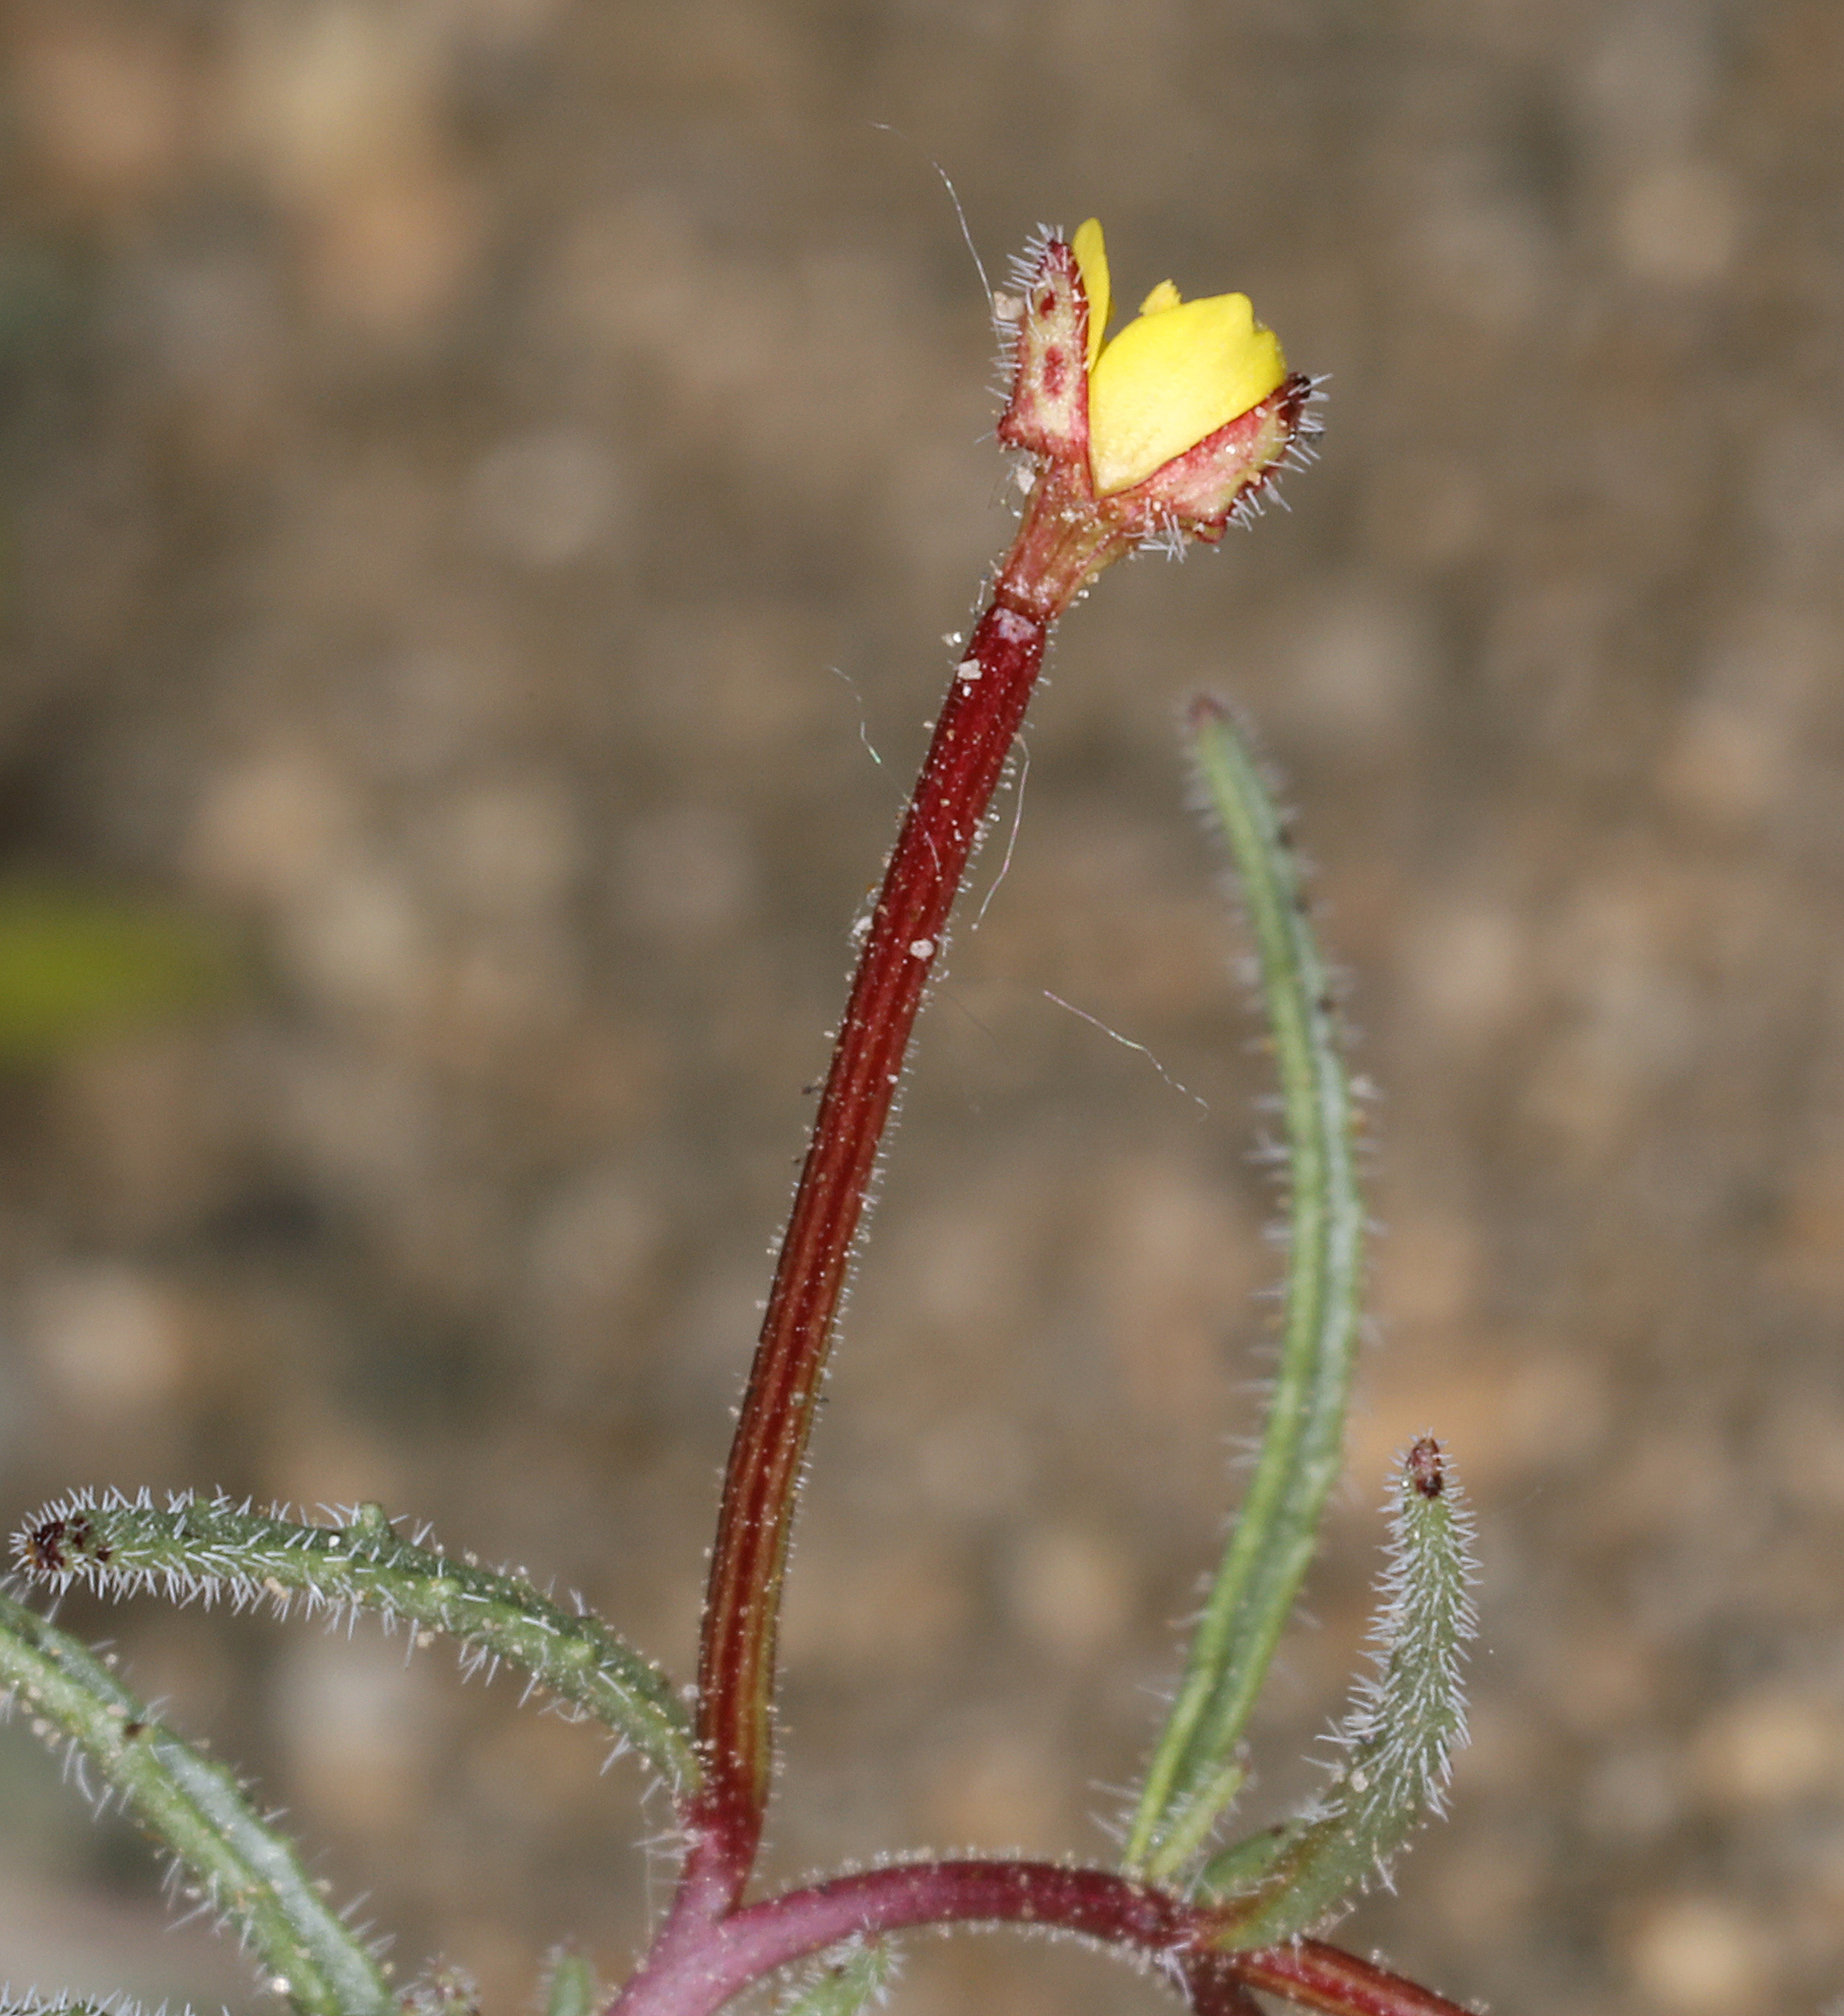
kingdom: Plantae
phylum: Tracheophyta
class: Magnoliopsida
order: Myrtales
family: Onagraceae
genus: Camissonia
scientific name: Camissonia pusilla
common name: Obscure camissonia
